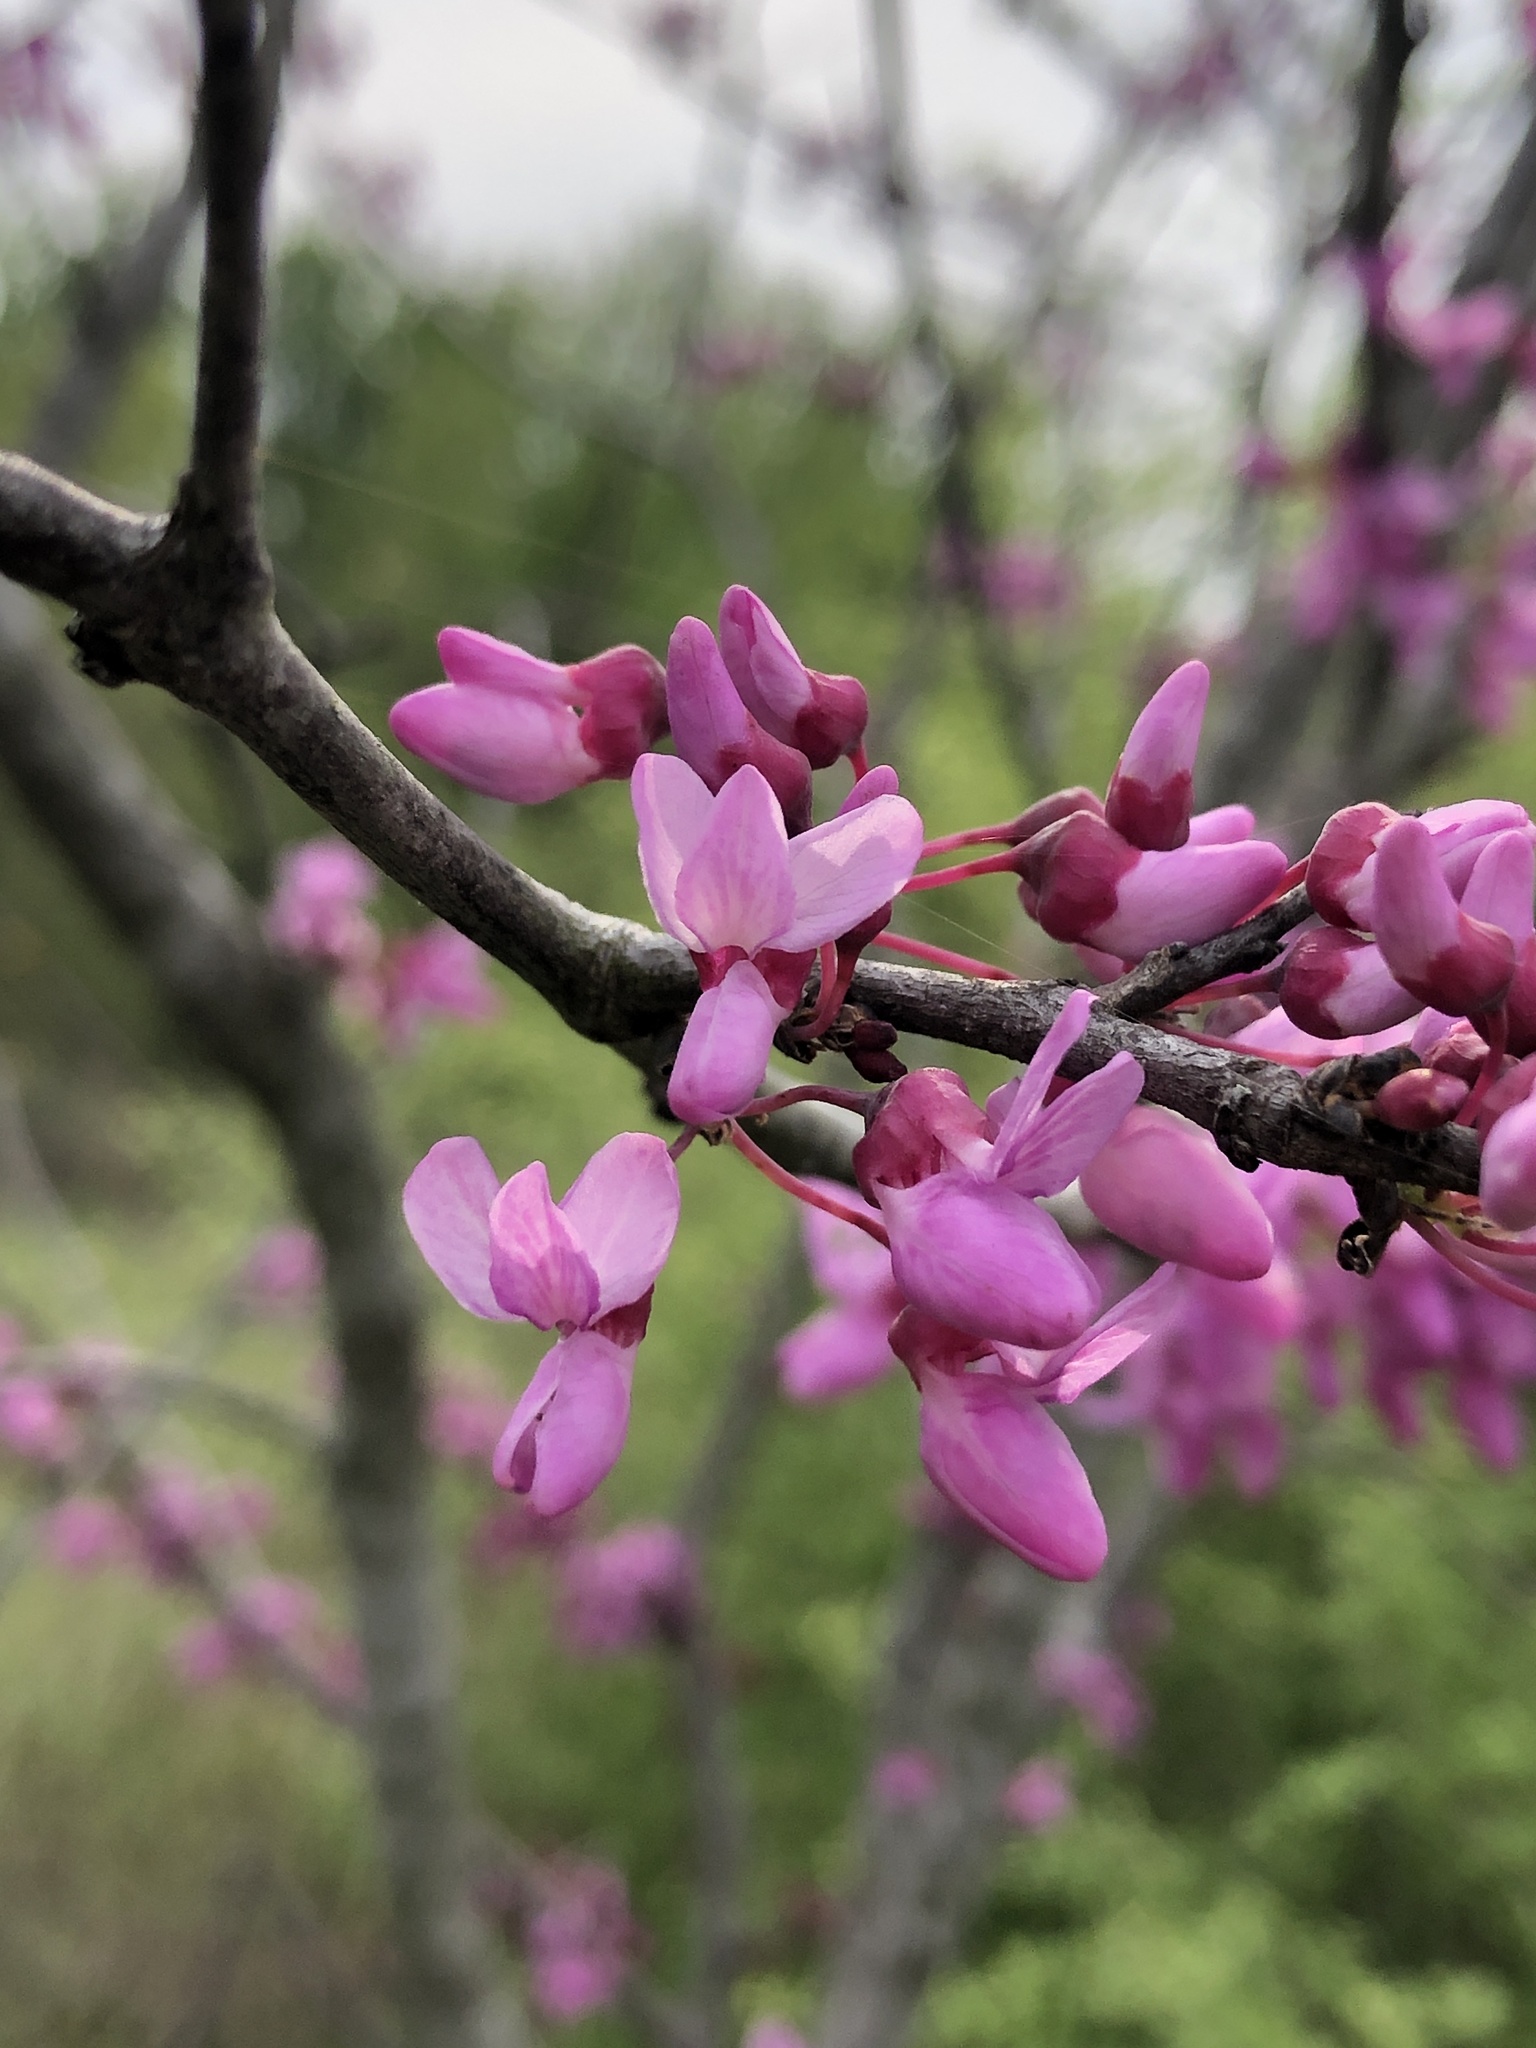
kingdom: Plantae
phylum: Tracheophyta
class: Magnoliopsida
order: Fabales
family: Fabaceae
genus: Cercis
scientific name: Cercis canadensis
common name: Eastern redbud
